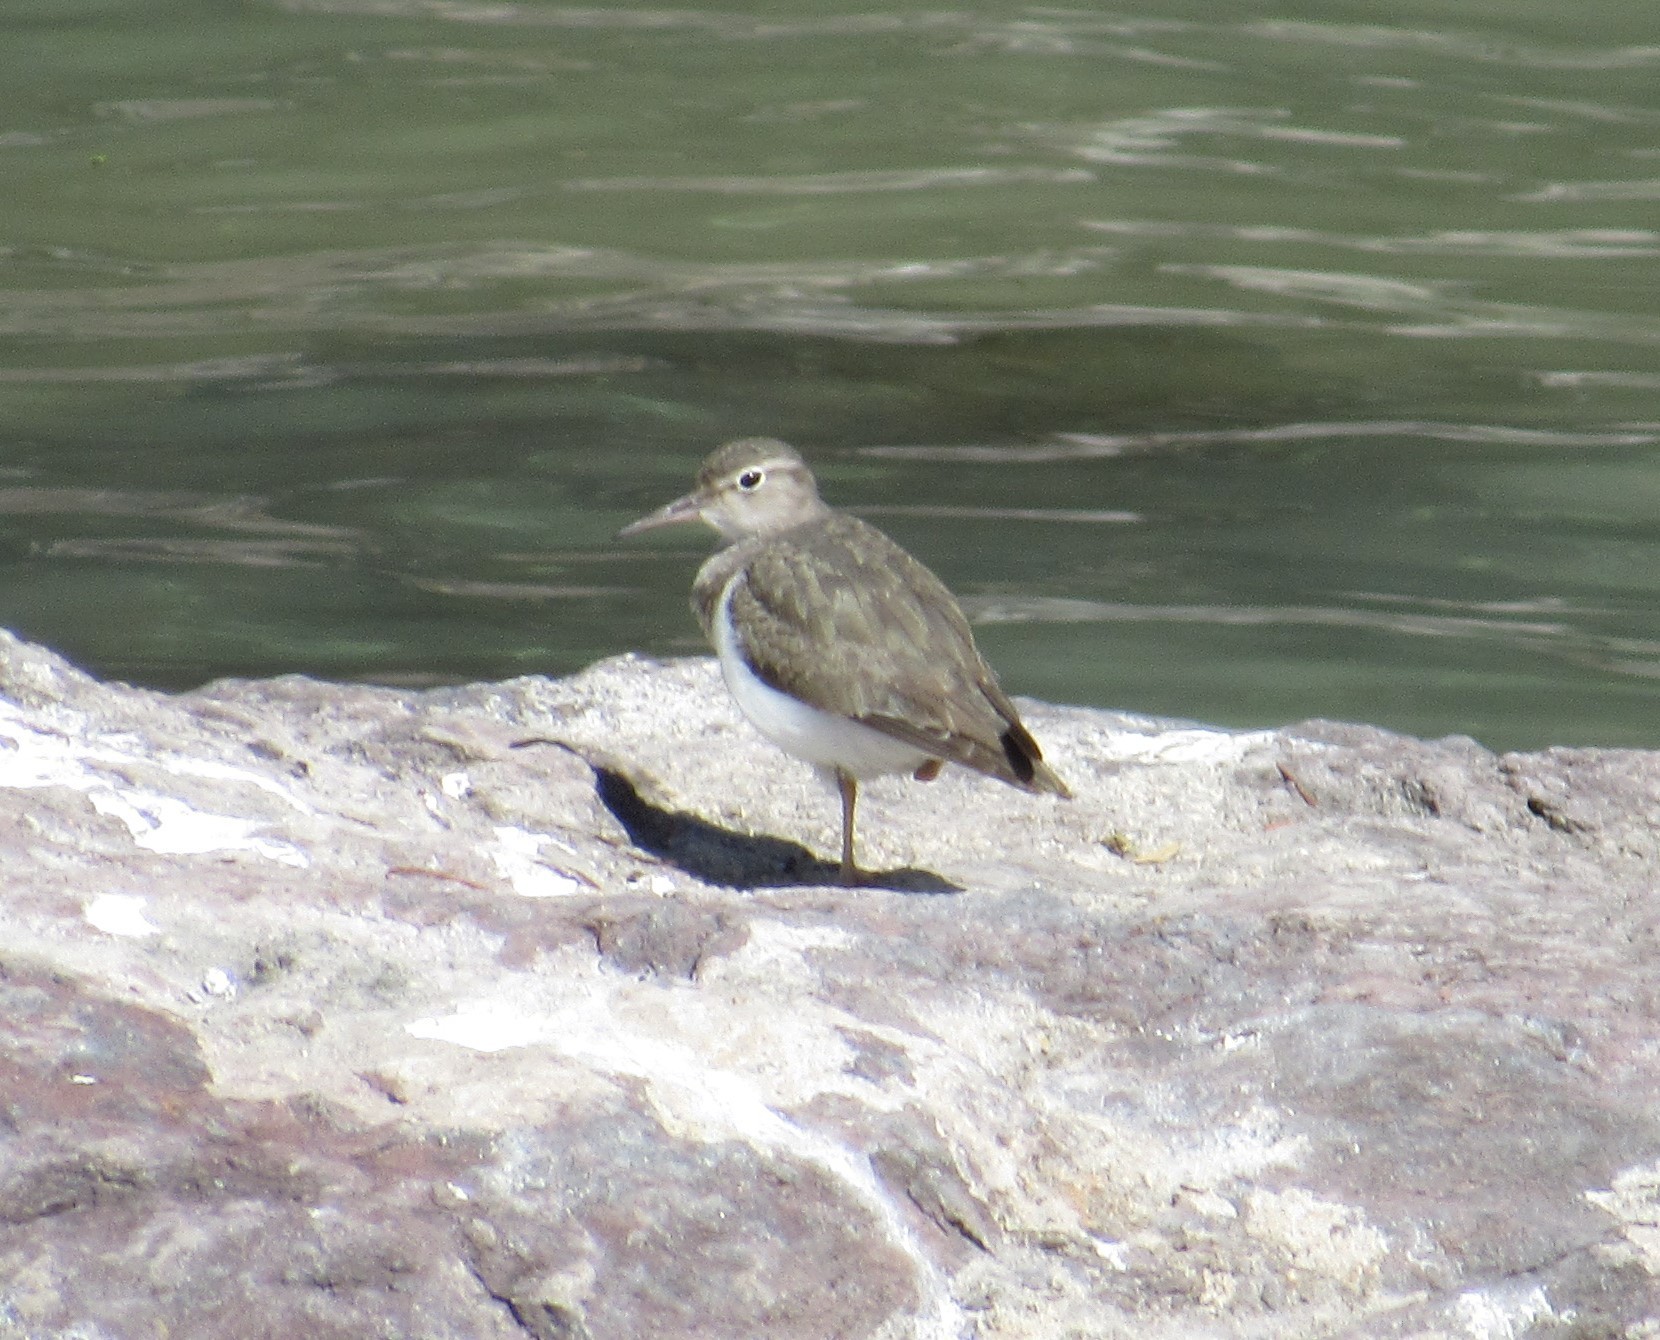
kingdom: Animalia
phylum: Chordata
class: Aves
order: Charadriiformes
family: Scolopacidae
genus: Actitis
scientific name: Actitis macularius
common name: Spotted sandpiper
